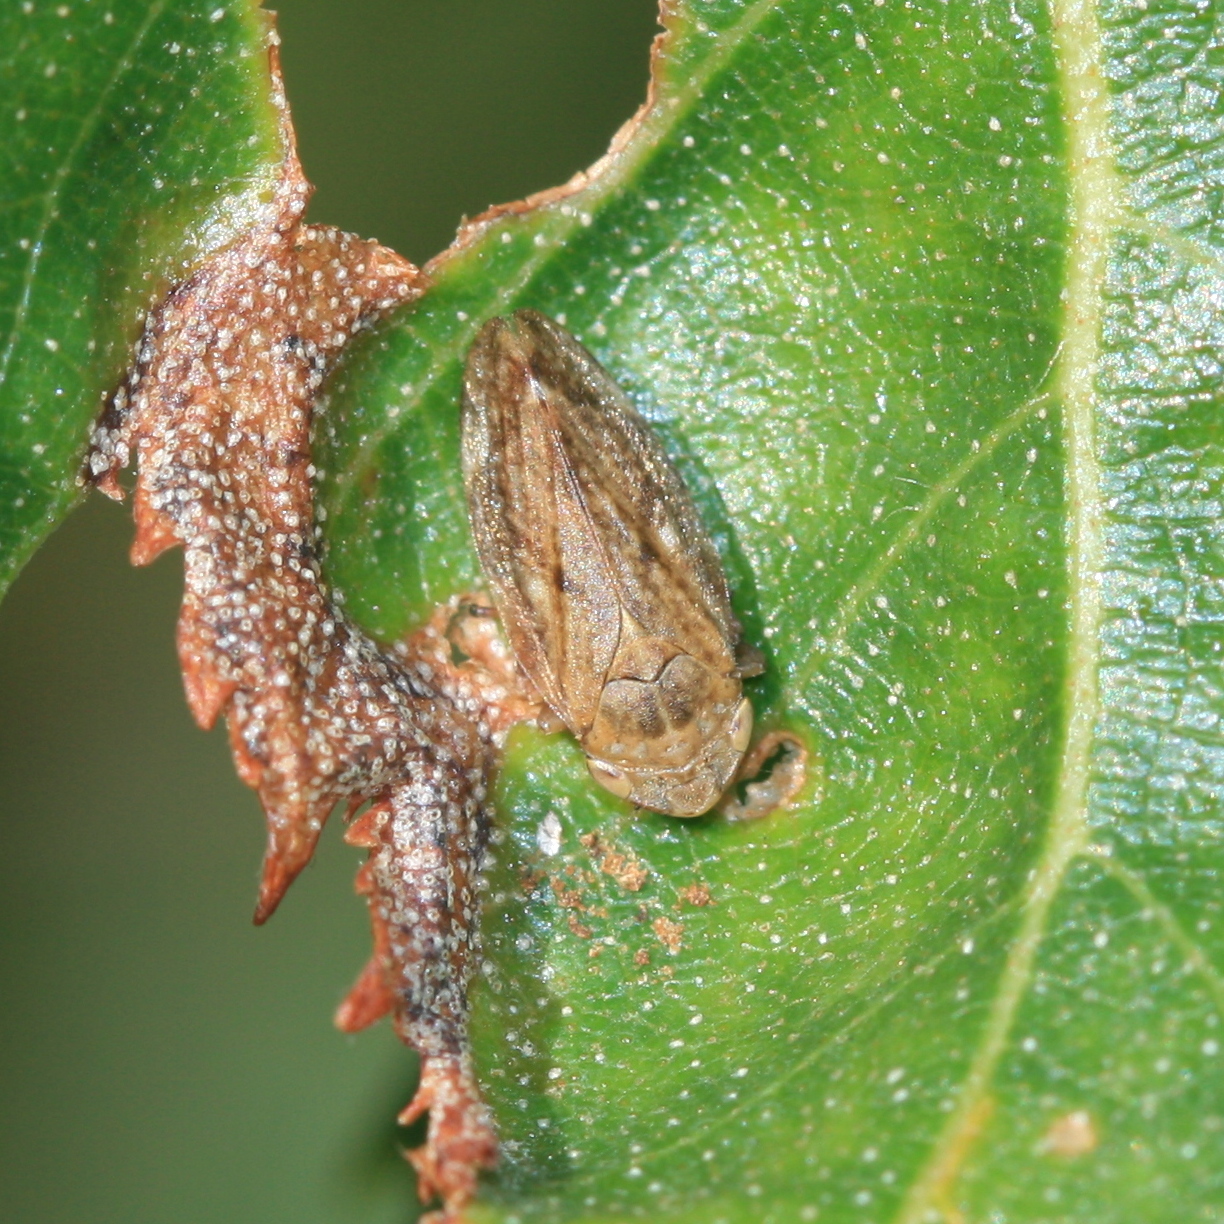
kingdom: Animalia
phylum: Arthropoda
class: Insecta
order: Hemiptera
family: Aphrophoridae
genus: Philaenus
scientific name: Philaenus spumarius
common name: Meadow spittlebug
